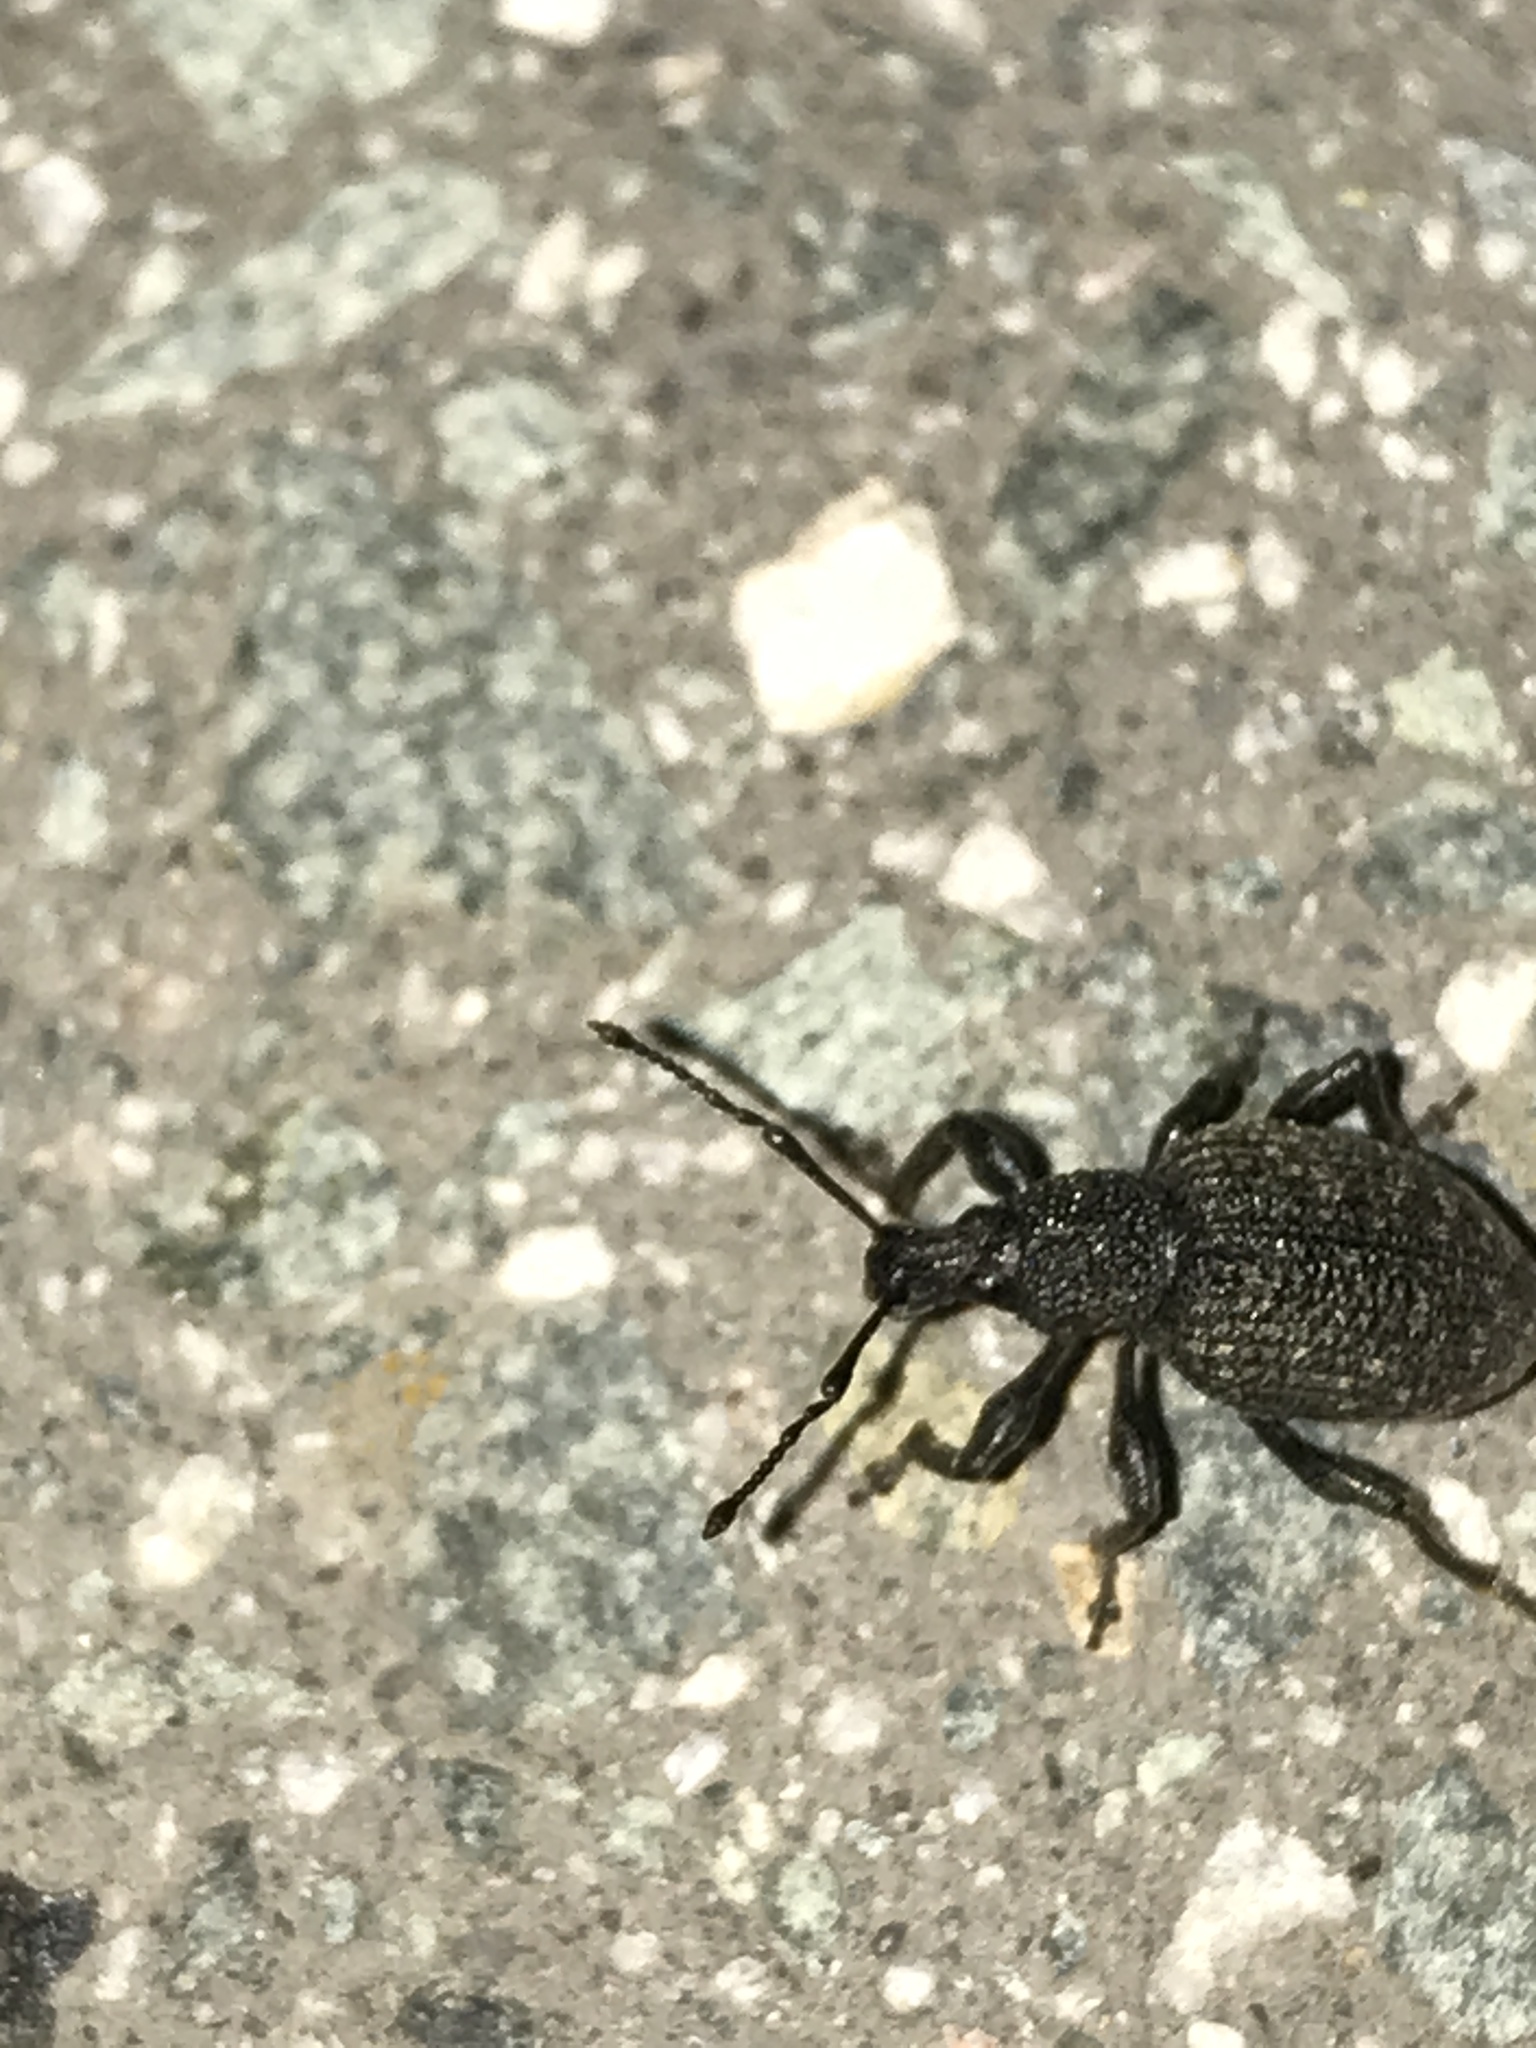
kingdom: Animalia
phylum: Arthropoda
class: Insecta
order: Coleoptera
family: Curculionidae
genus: Otiorhynchus
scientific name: Otiorhynchus sulcatus
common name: Black vine weevil
